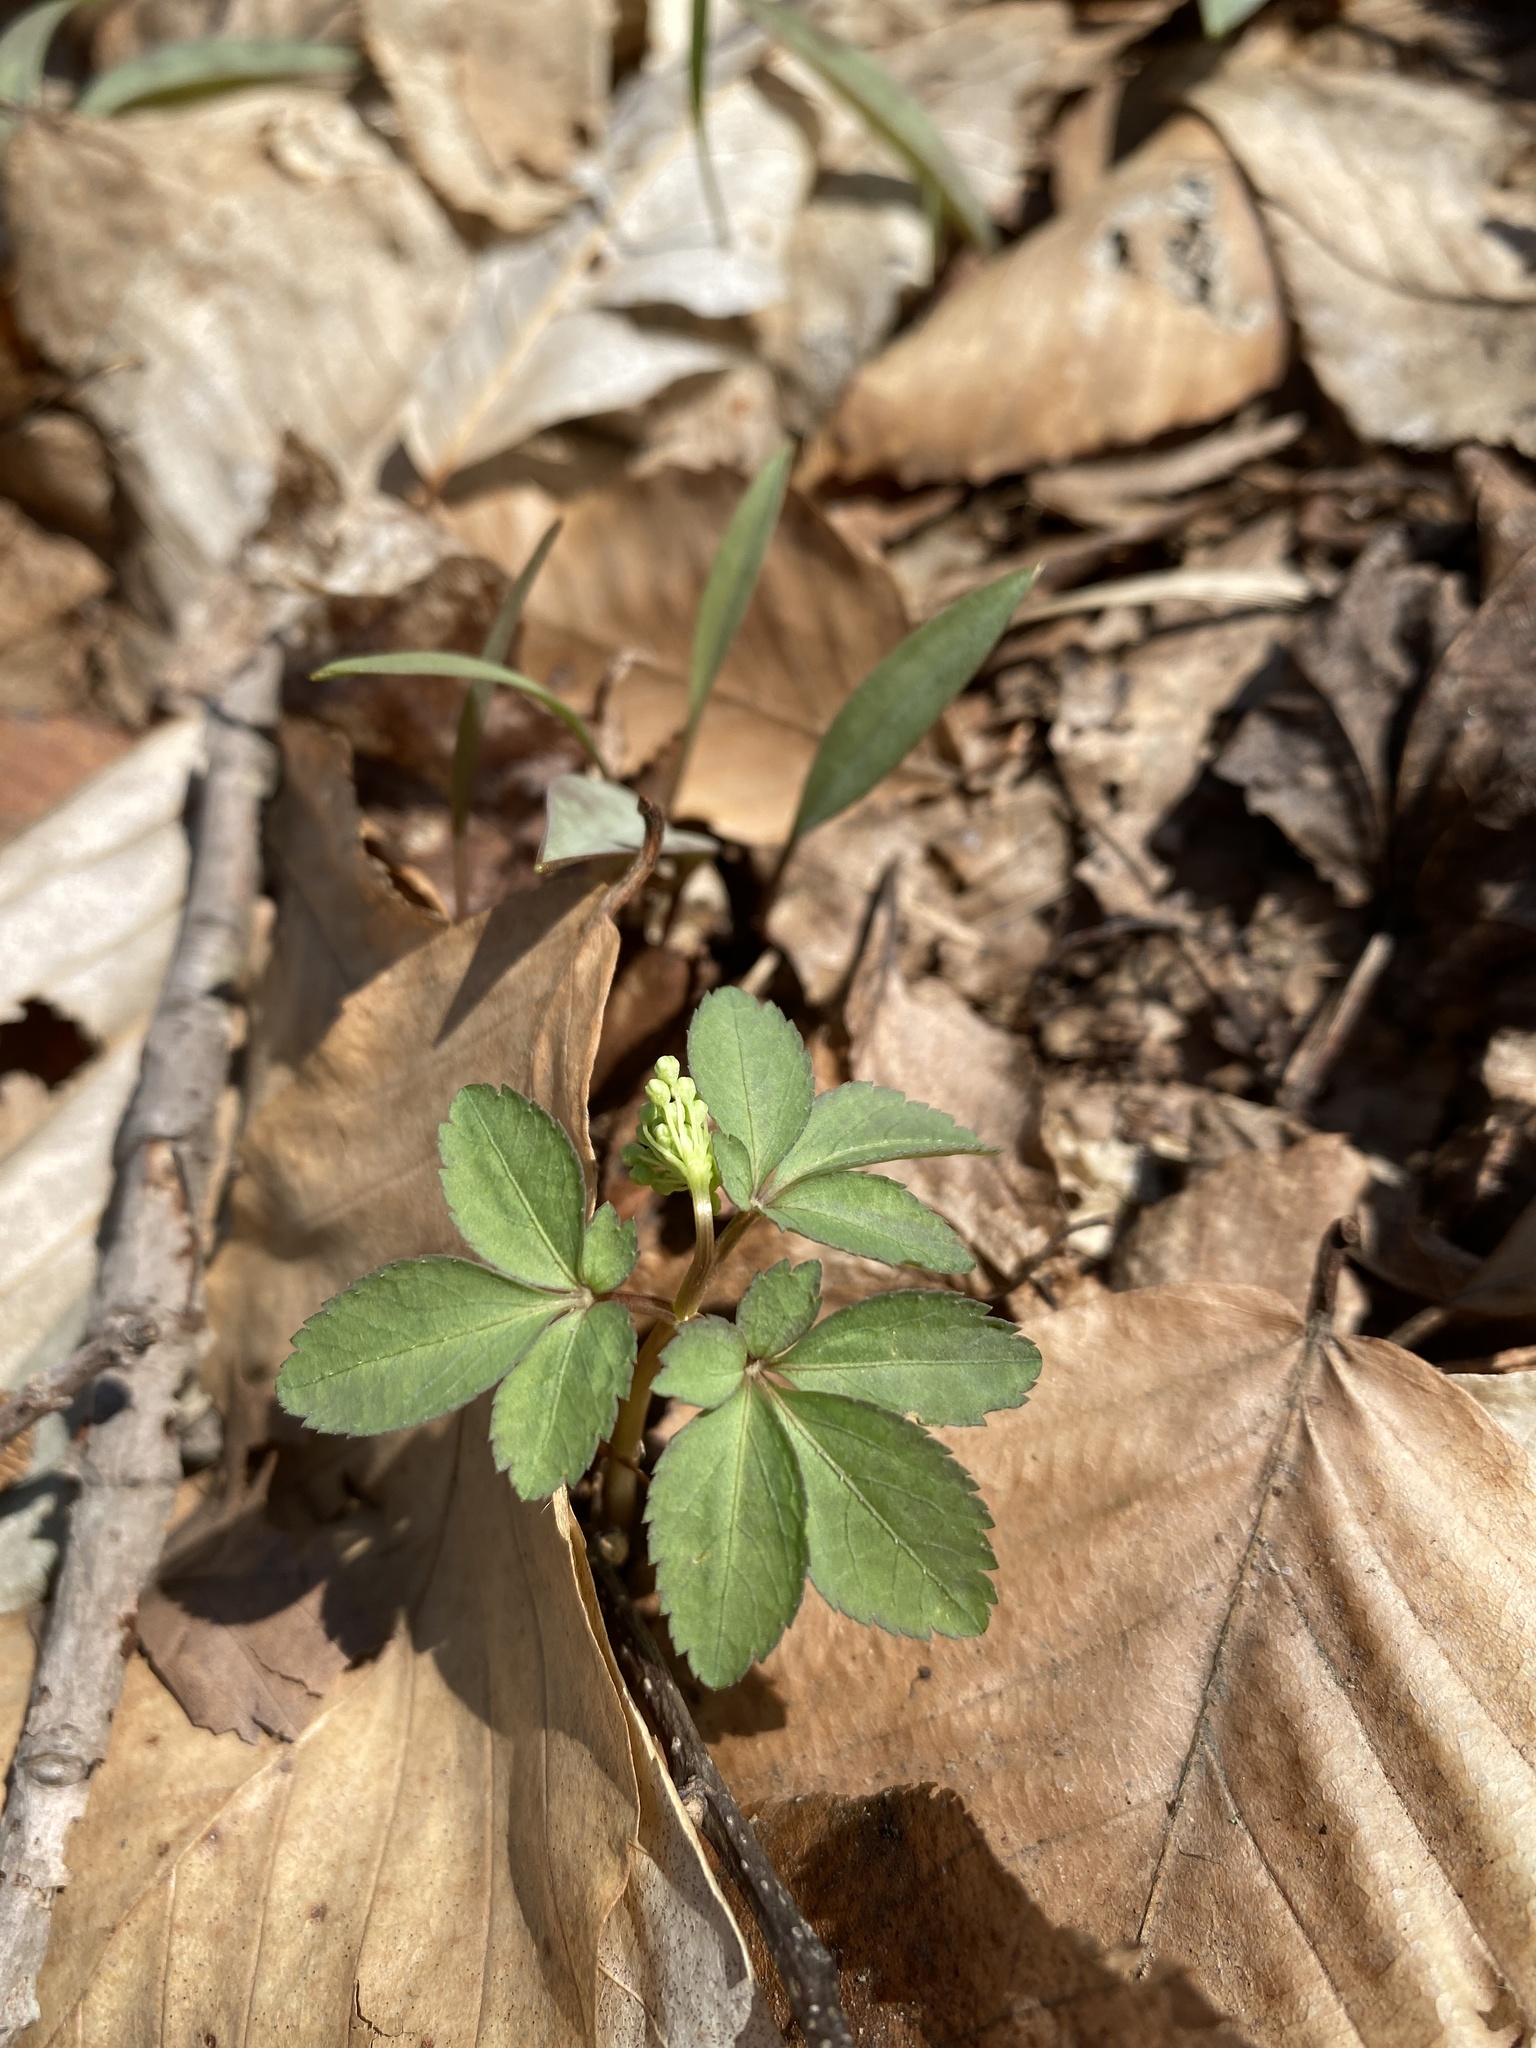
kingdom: Plantae
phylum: Tracheophyta
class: Magnoliopsida
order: Apiales
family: Araliaceae
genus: Panax
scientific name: Panax trifolius
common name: Dwarf ginseng
